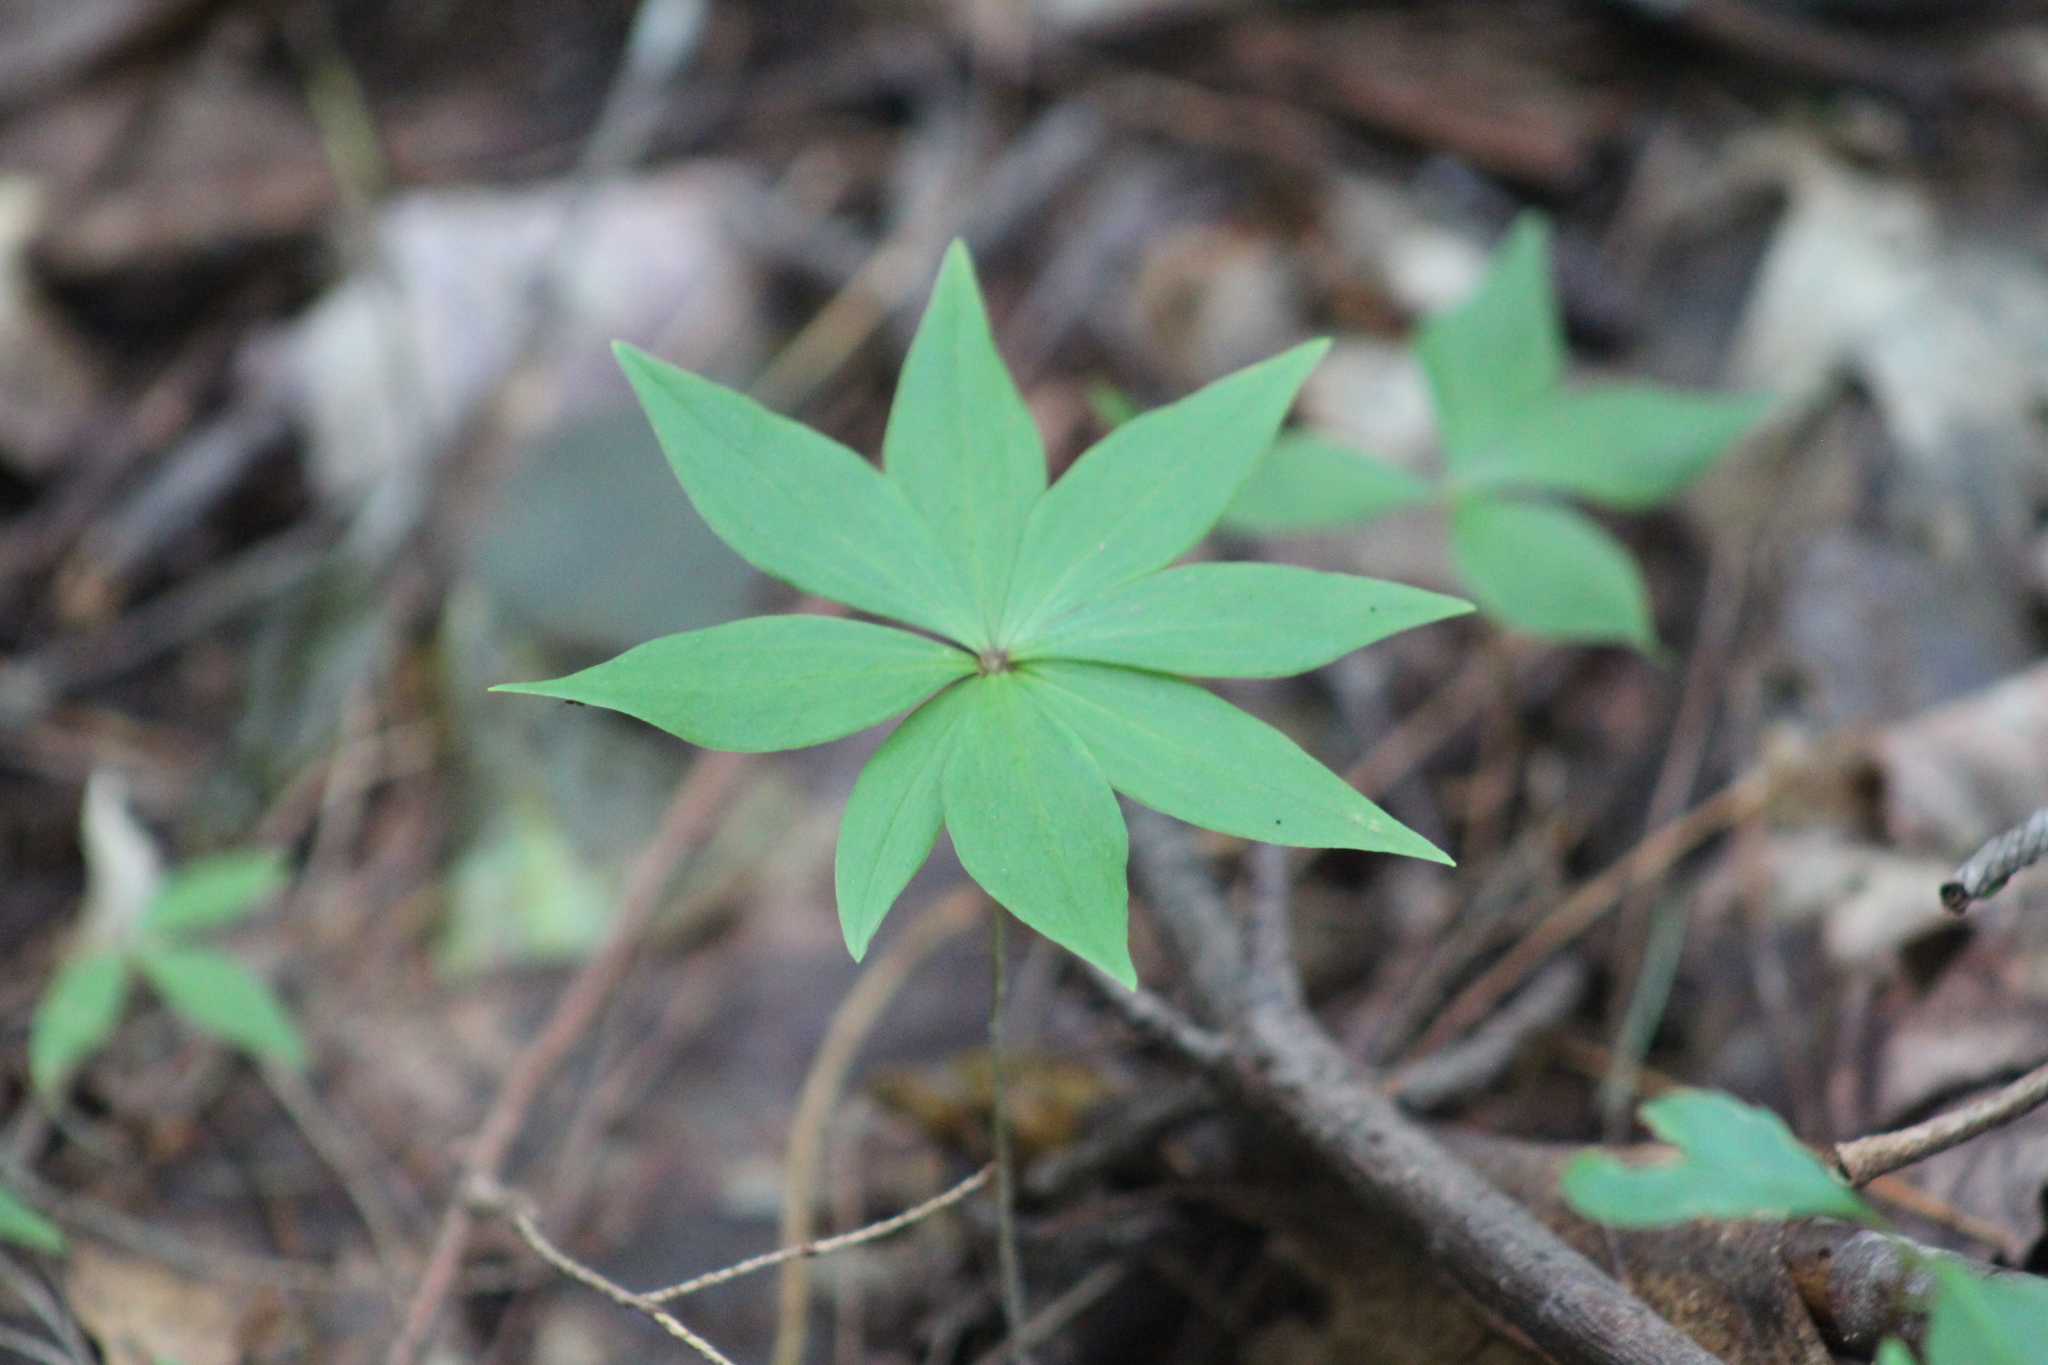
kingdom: Plantae
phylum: Tracheophyta
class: Liliopsida
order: Liliales
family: Liliaceae
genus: Medeola
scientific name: Medeola virginiana
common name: Indian cucumber-root
